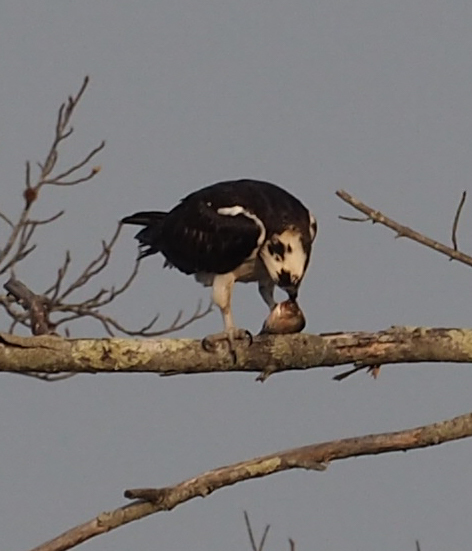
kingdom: Animalia
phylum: Chordata
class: Aves
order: Accipitriformes
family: Pandionidae
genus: Pandion
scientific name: Pandion haliaetus
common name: Osprey
